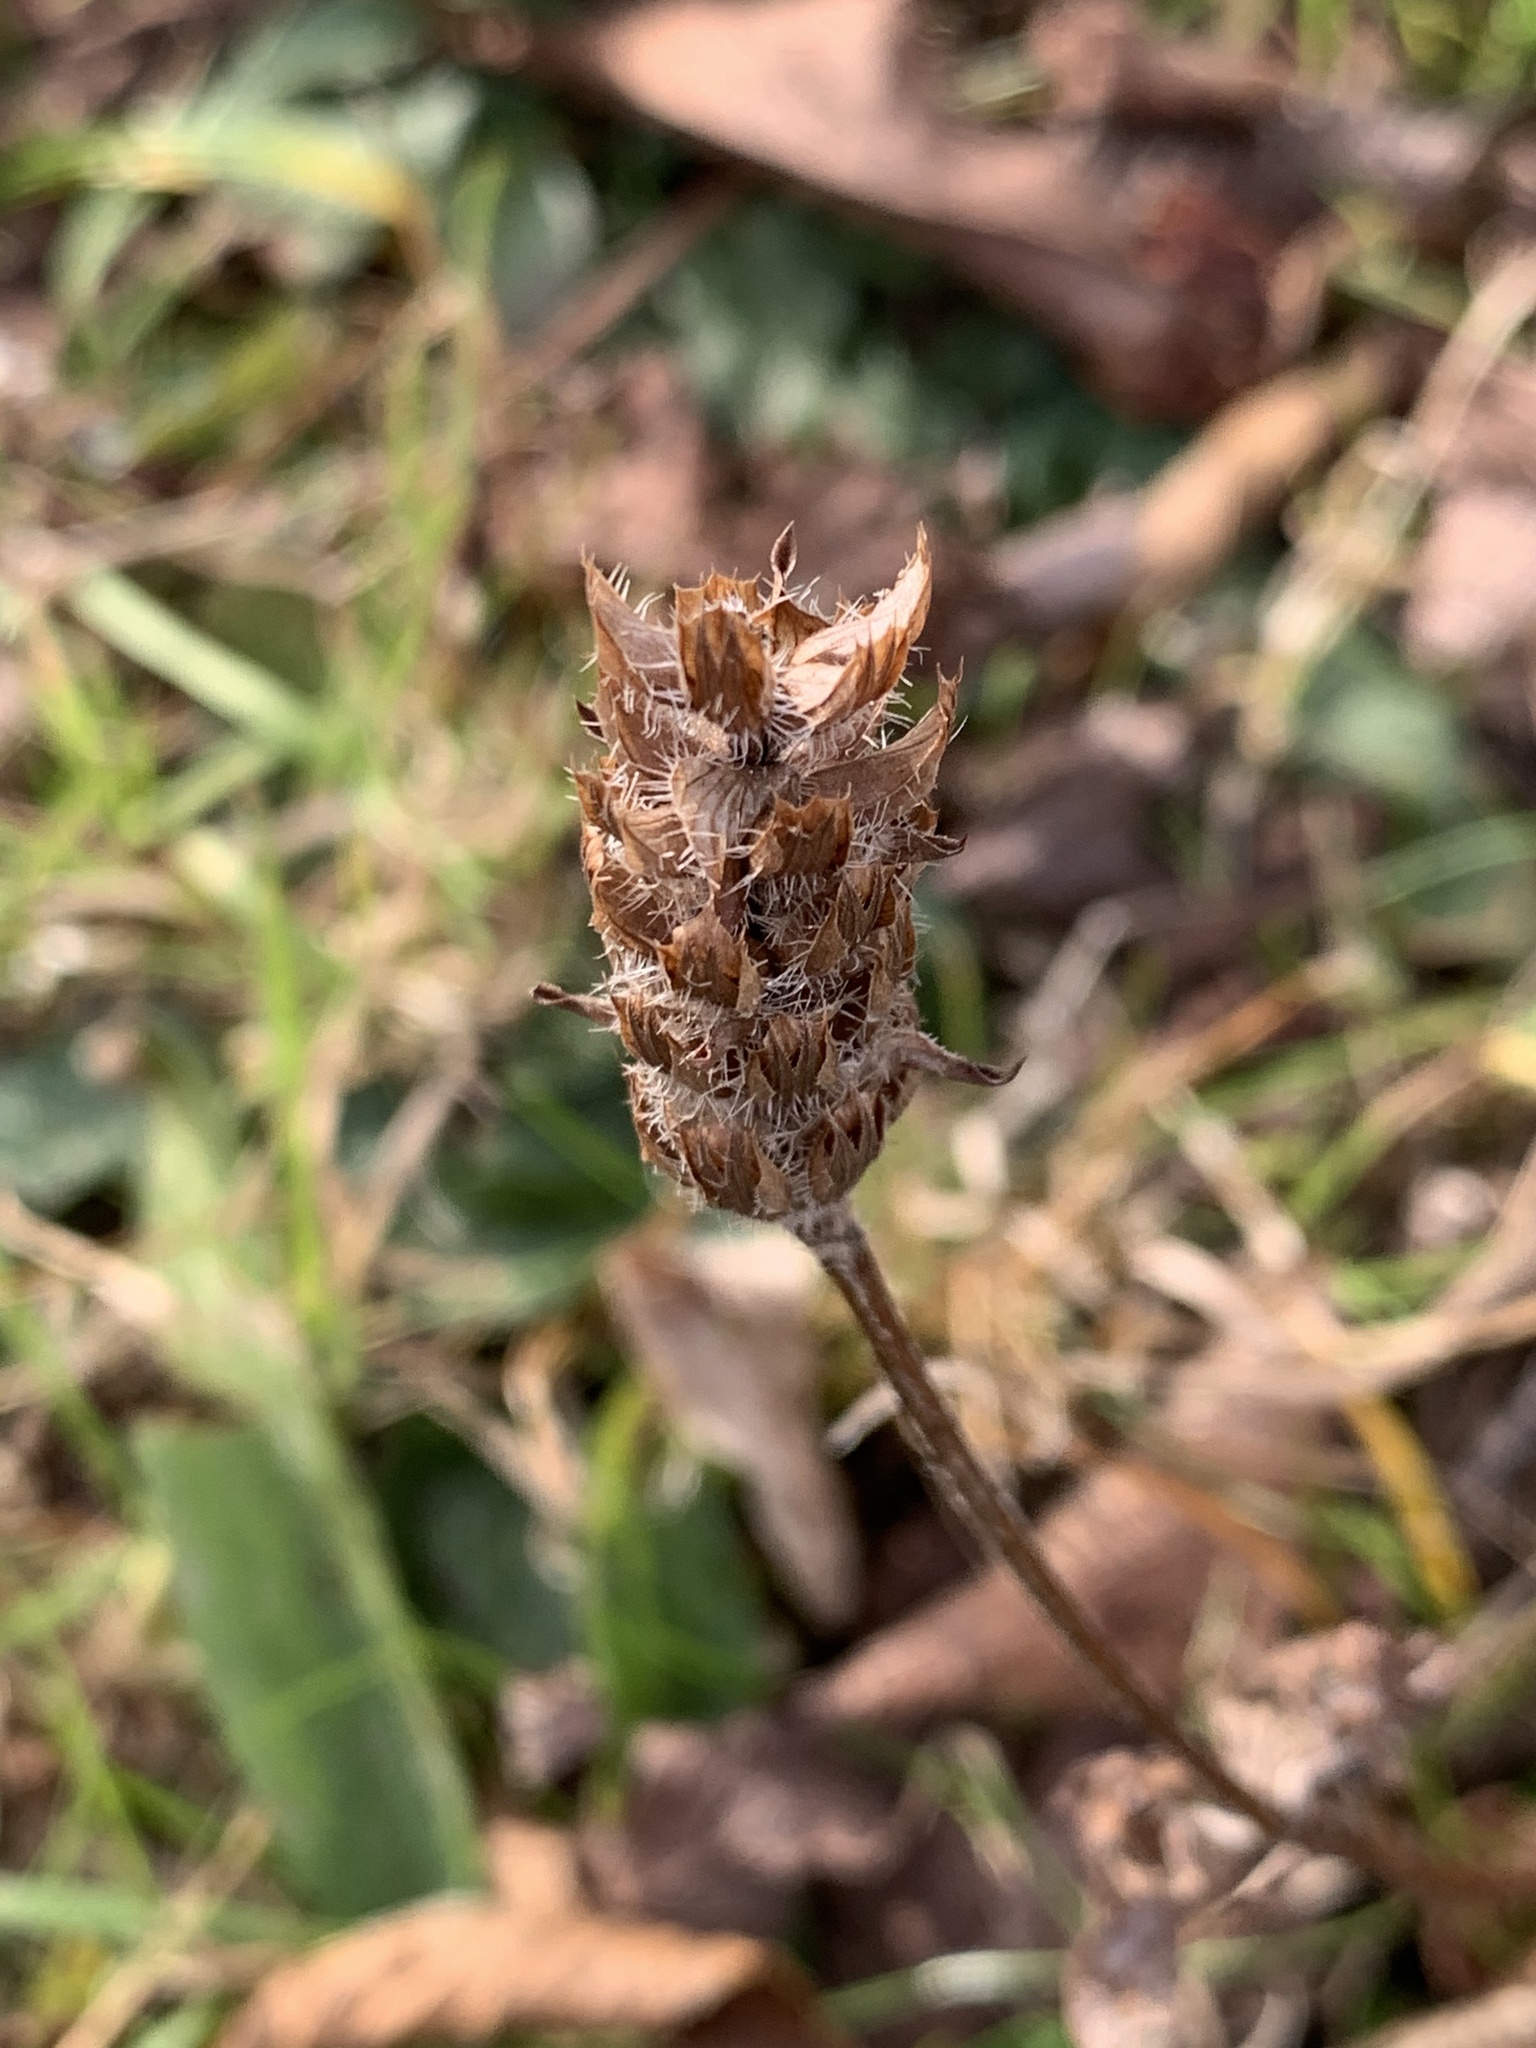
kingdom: Plantae
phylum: Tracheophyta
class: Magnoliopsida
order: Lamiales
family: Lamiaceae
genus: Prunella
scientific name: Prunella vulgaris
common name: Heal-all
